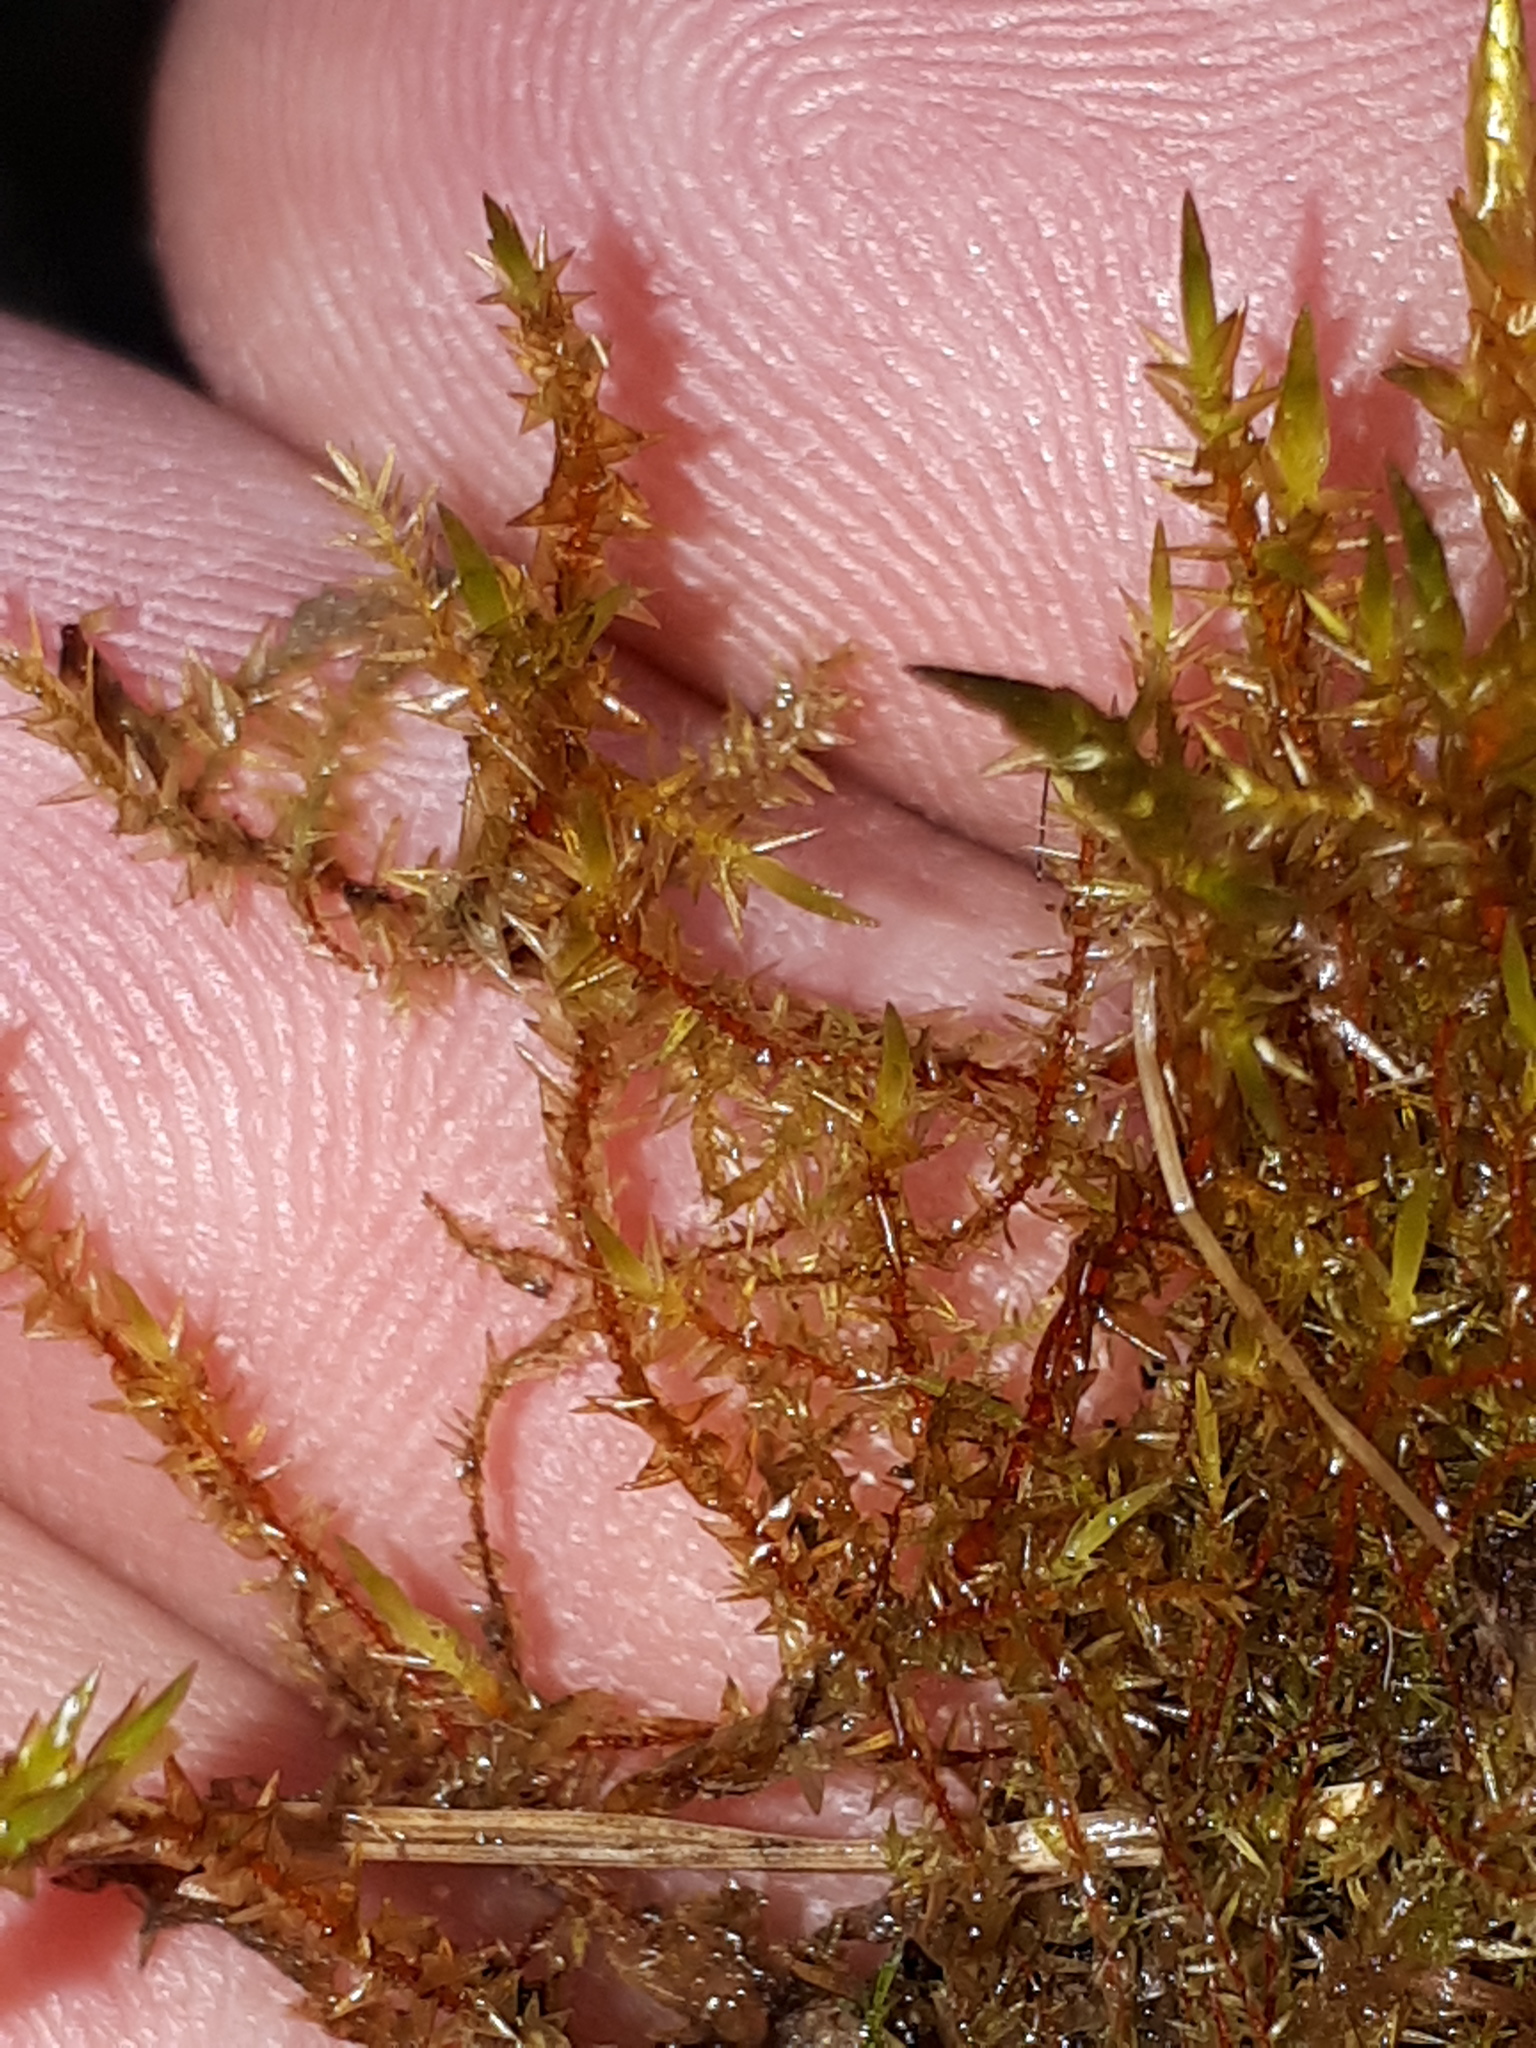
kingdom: Plantae
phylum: Bryophyta
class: Bryopsida
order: Hypnales
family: Pylaisiaceae
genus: Calliergonella
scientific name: Calliergonella cuspidata
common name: Common large wetland moss
